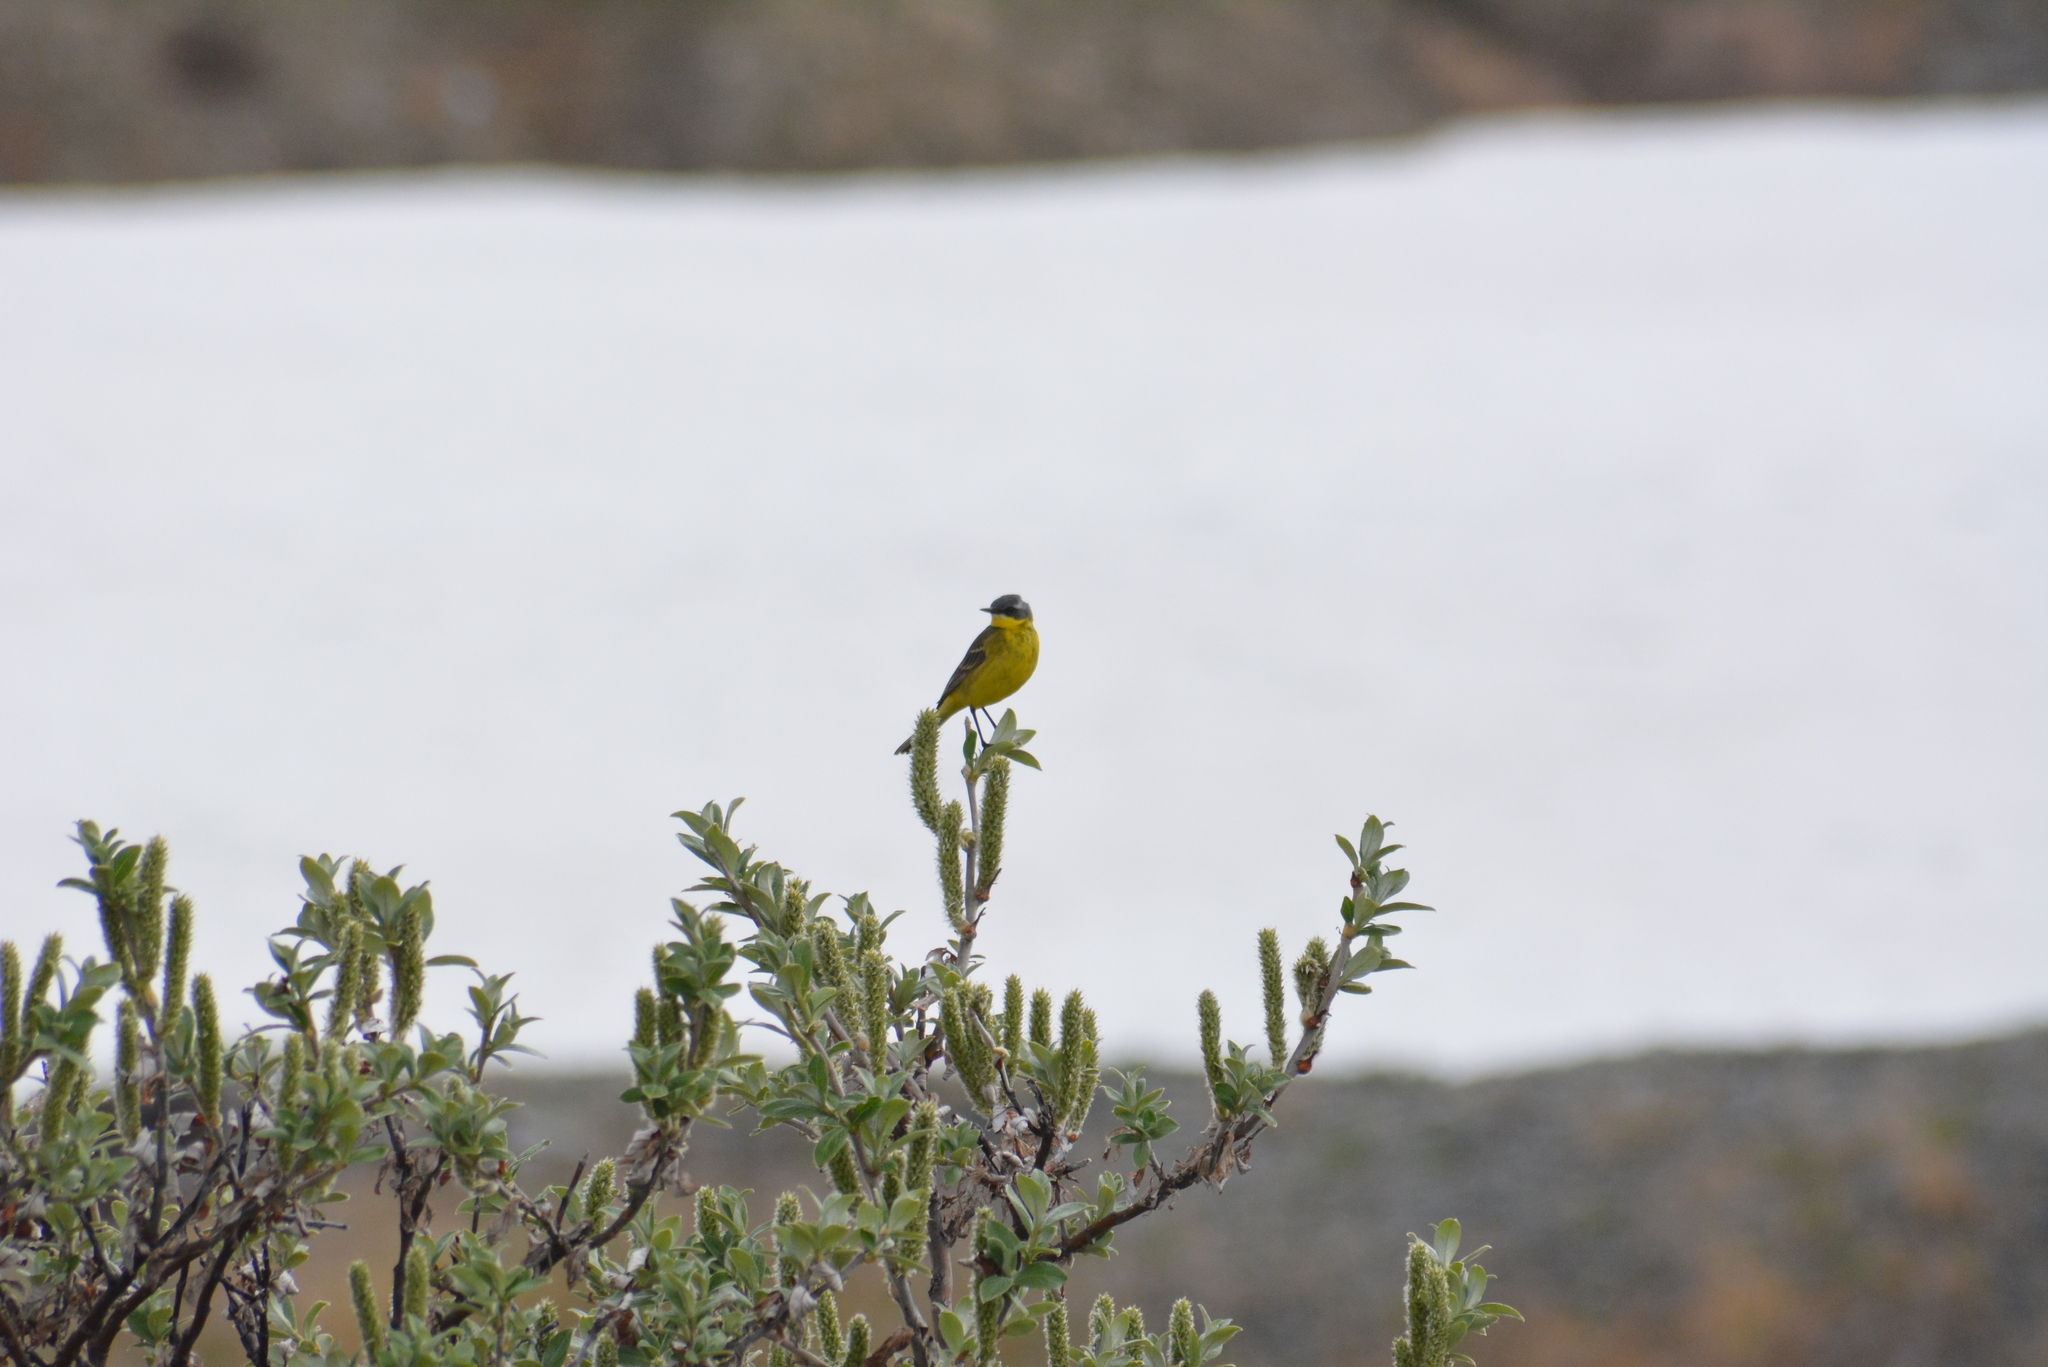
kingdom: Animalia
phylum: Chordata
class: Aves
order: Passeriformes
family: Motacillidae
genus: Motacilla
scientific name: Motacilla tschutschensis
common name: Eastern yellow wagtail
